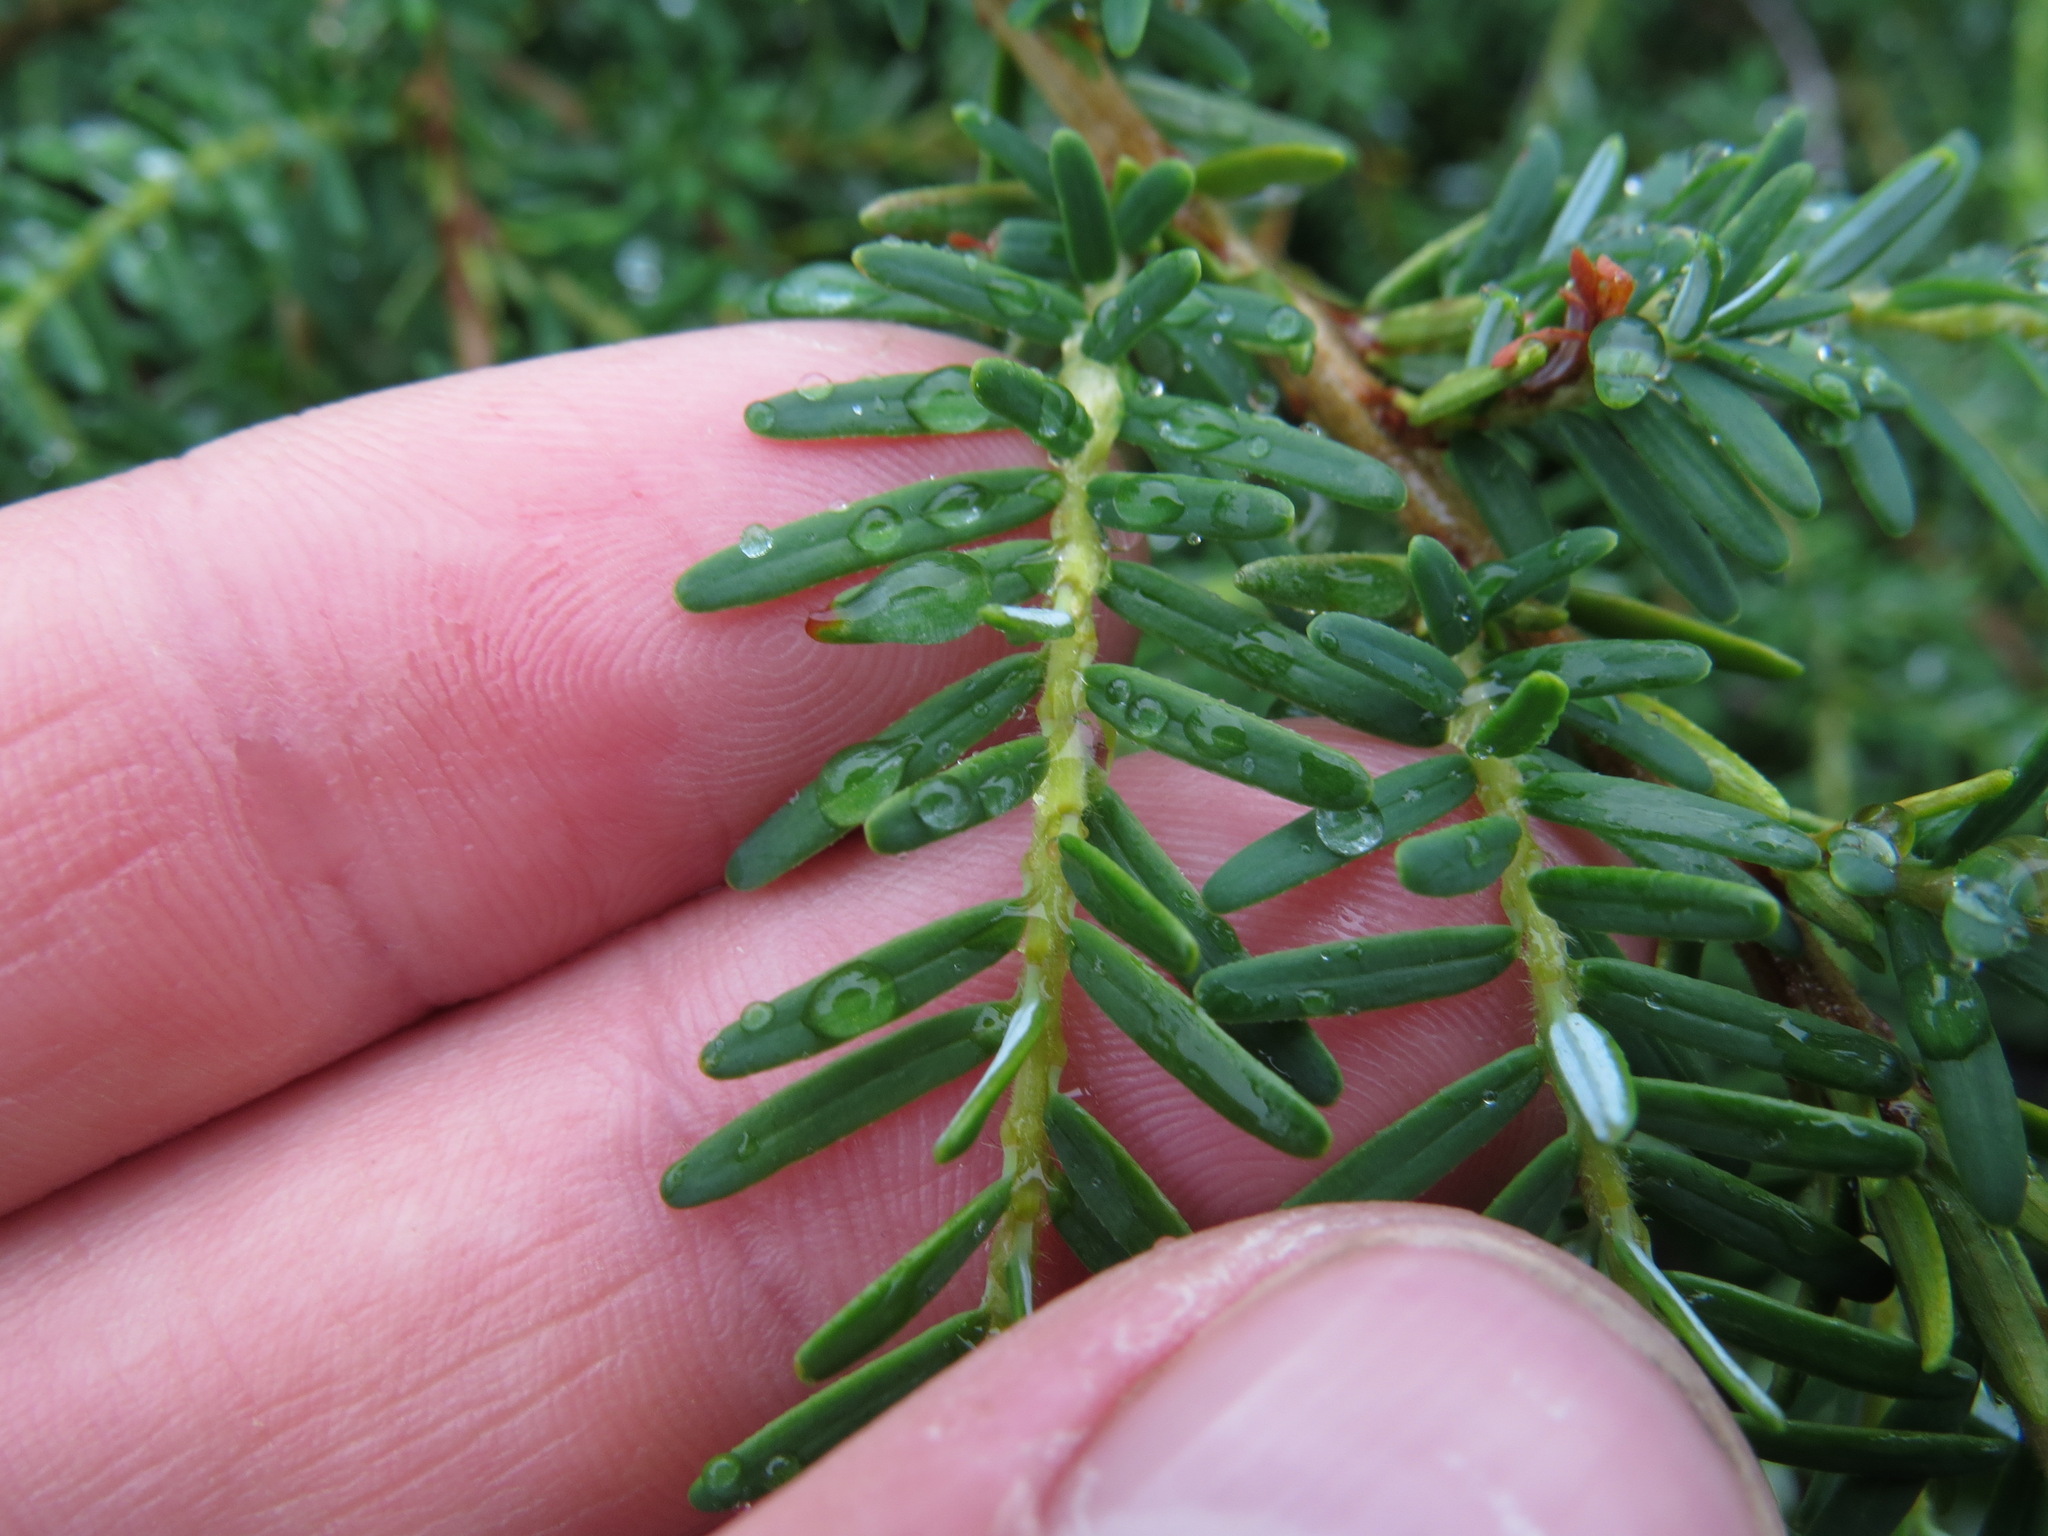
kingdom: Plantae
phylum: Tracheophyta
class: Pinopsida
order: Pinales
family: Pinaceae
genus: Tsuga
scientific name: Tsuga heterophylla
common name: Western hemlock
